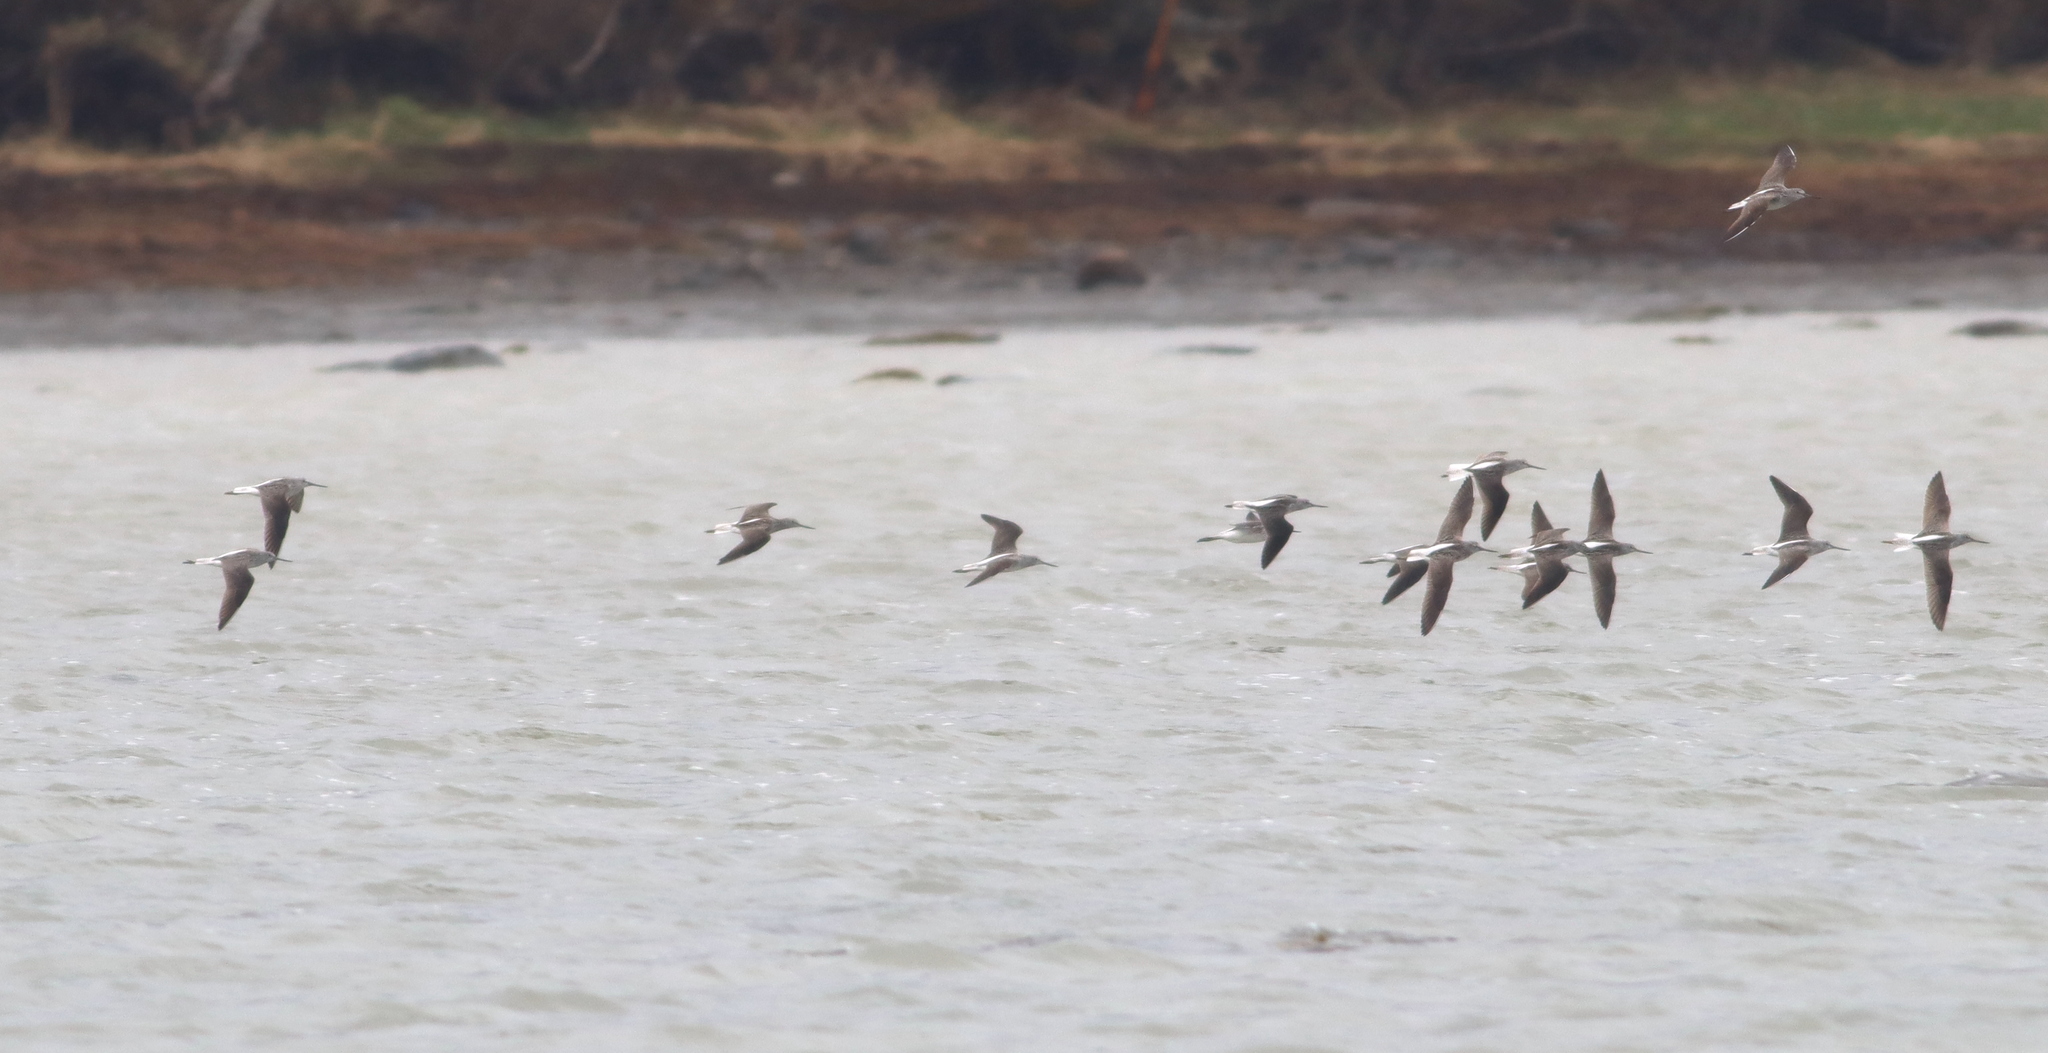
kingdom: Animalia
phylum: Chordata
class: Aves
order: Charadriiformes
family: Scolopacidae
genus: Tringa
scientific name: Tringa nebularia
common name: Common greenshank
